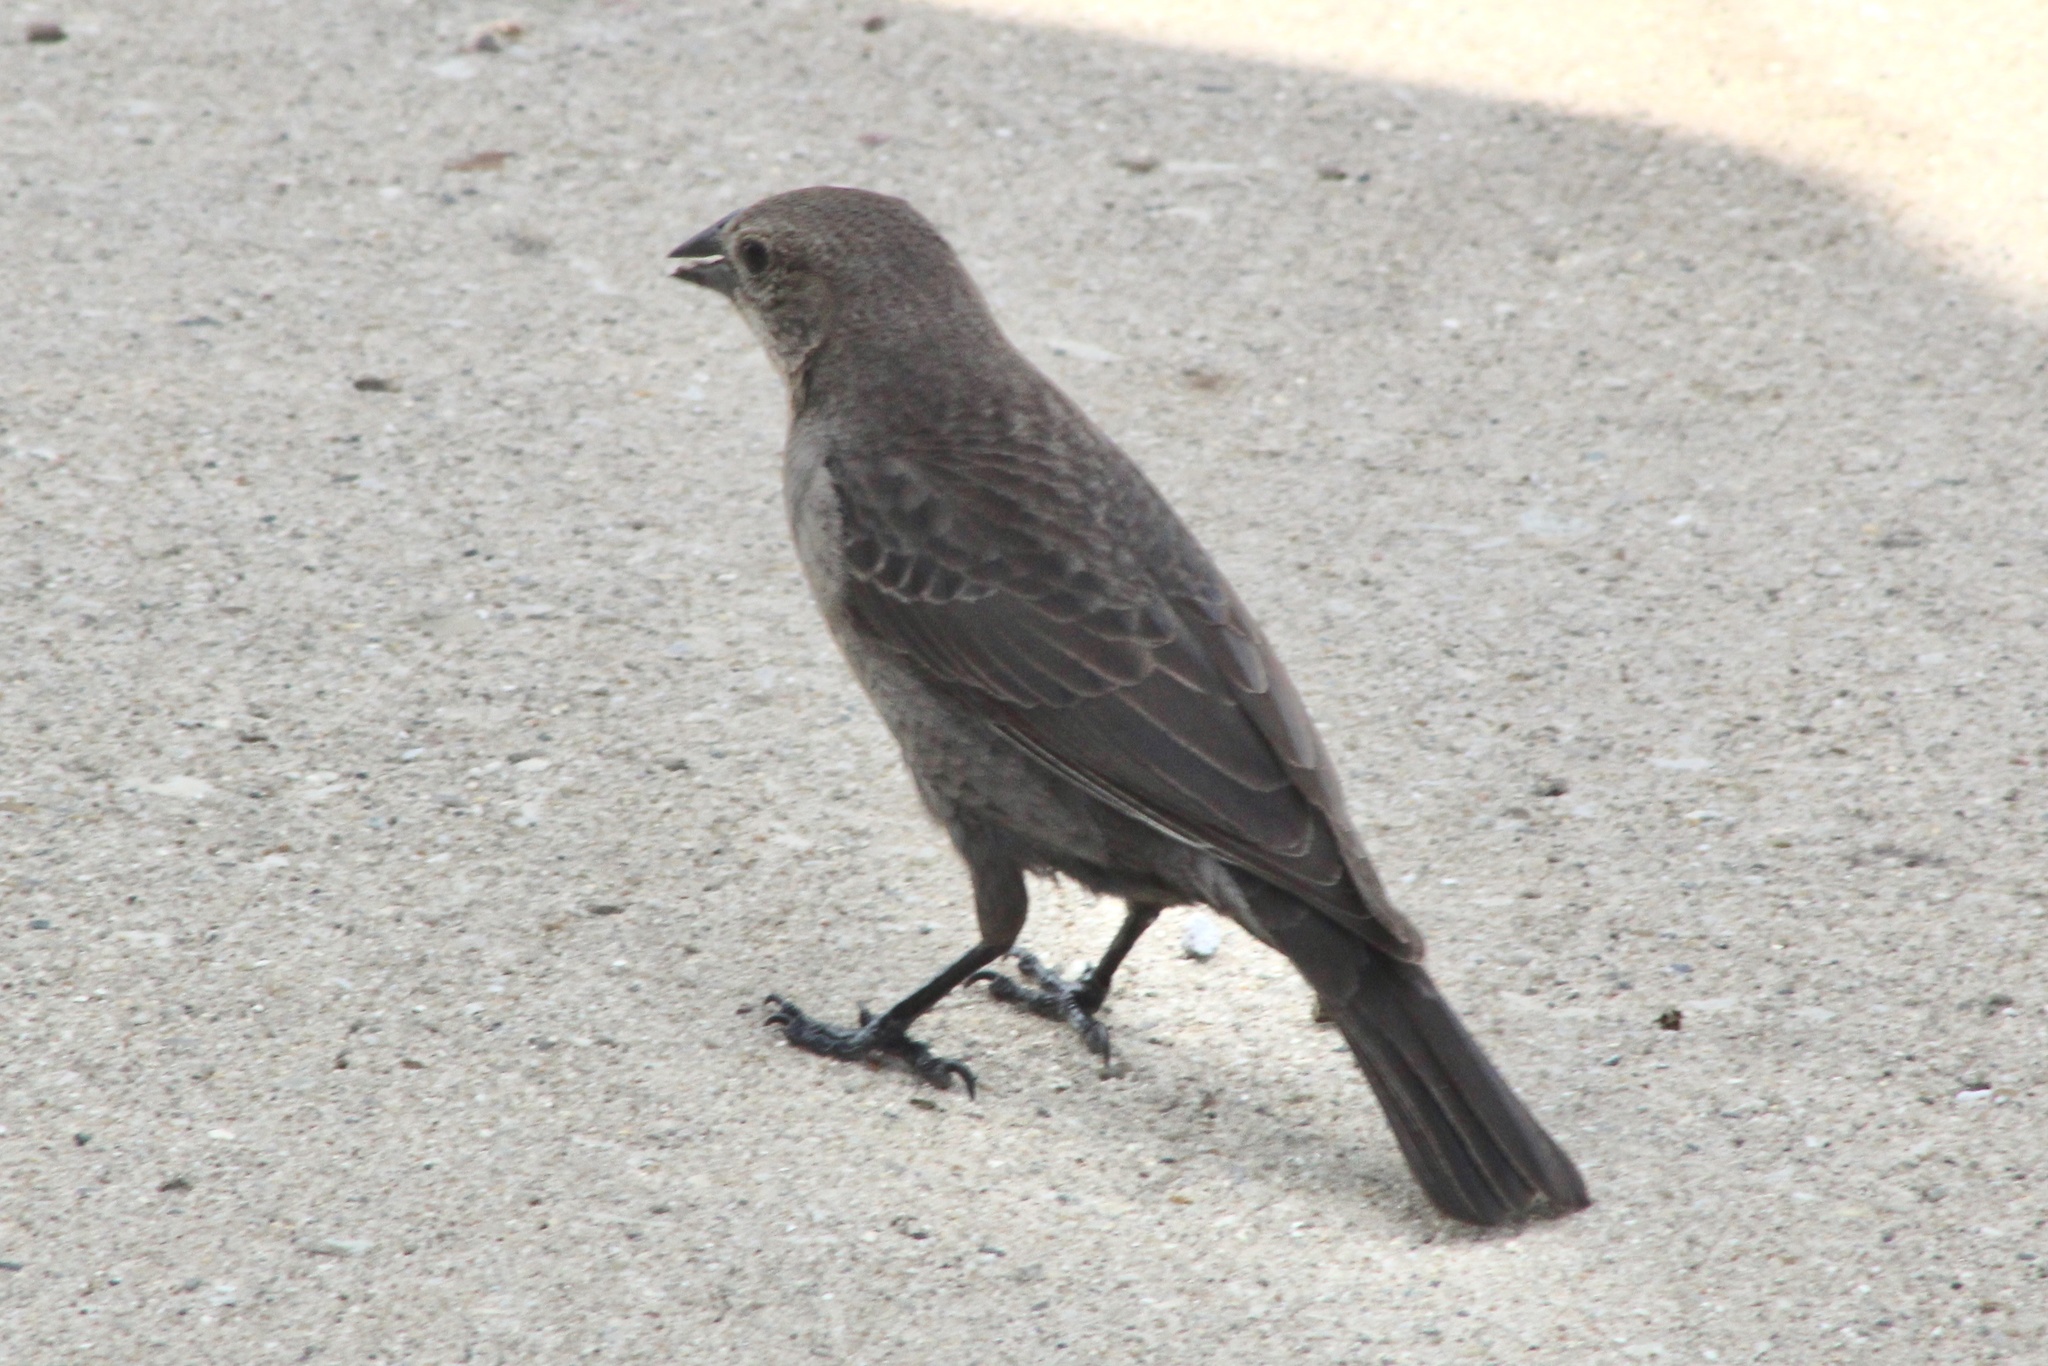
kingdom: Animalia
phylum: Chordata
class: Aves
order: Passeriformes
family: Icteridae
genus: Molothrus
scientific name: Molothrus ater
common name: Brown-headed cowbird
